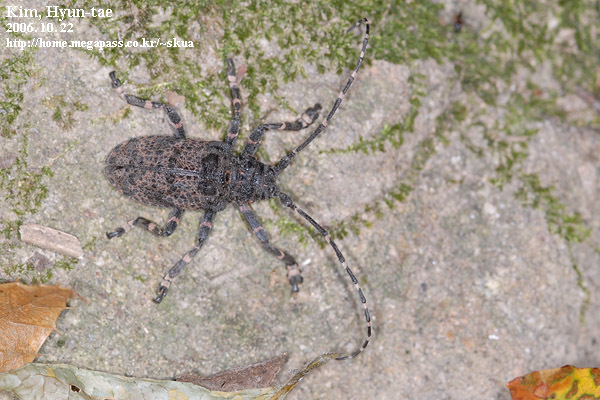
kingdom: Animalia
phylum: Arthropoda
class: Insecta
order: Coleoptera
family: Cerambycidae
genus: Moechotypa
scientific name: Moechotypa diphysis
